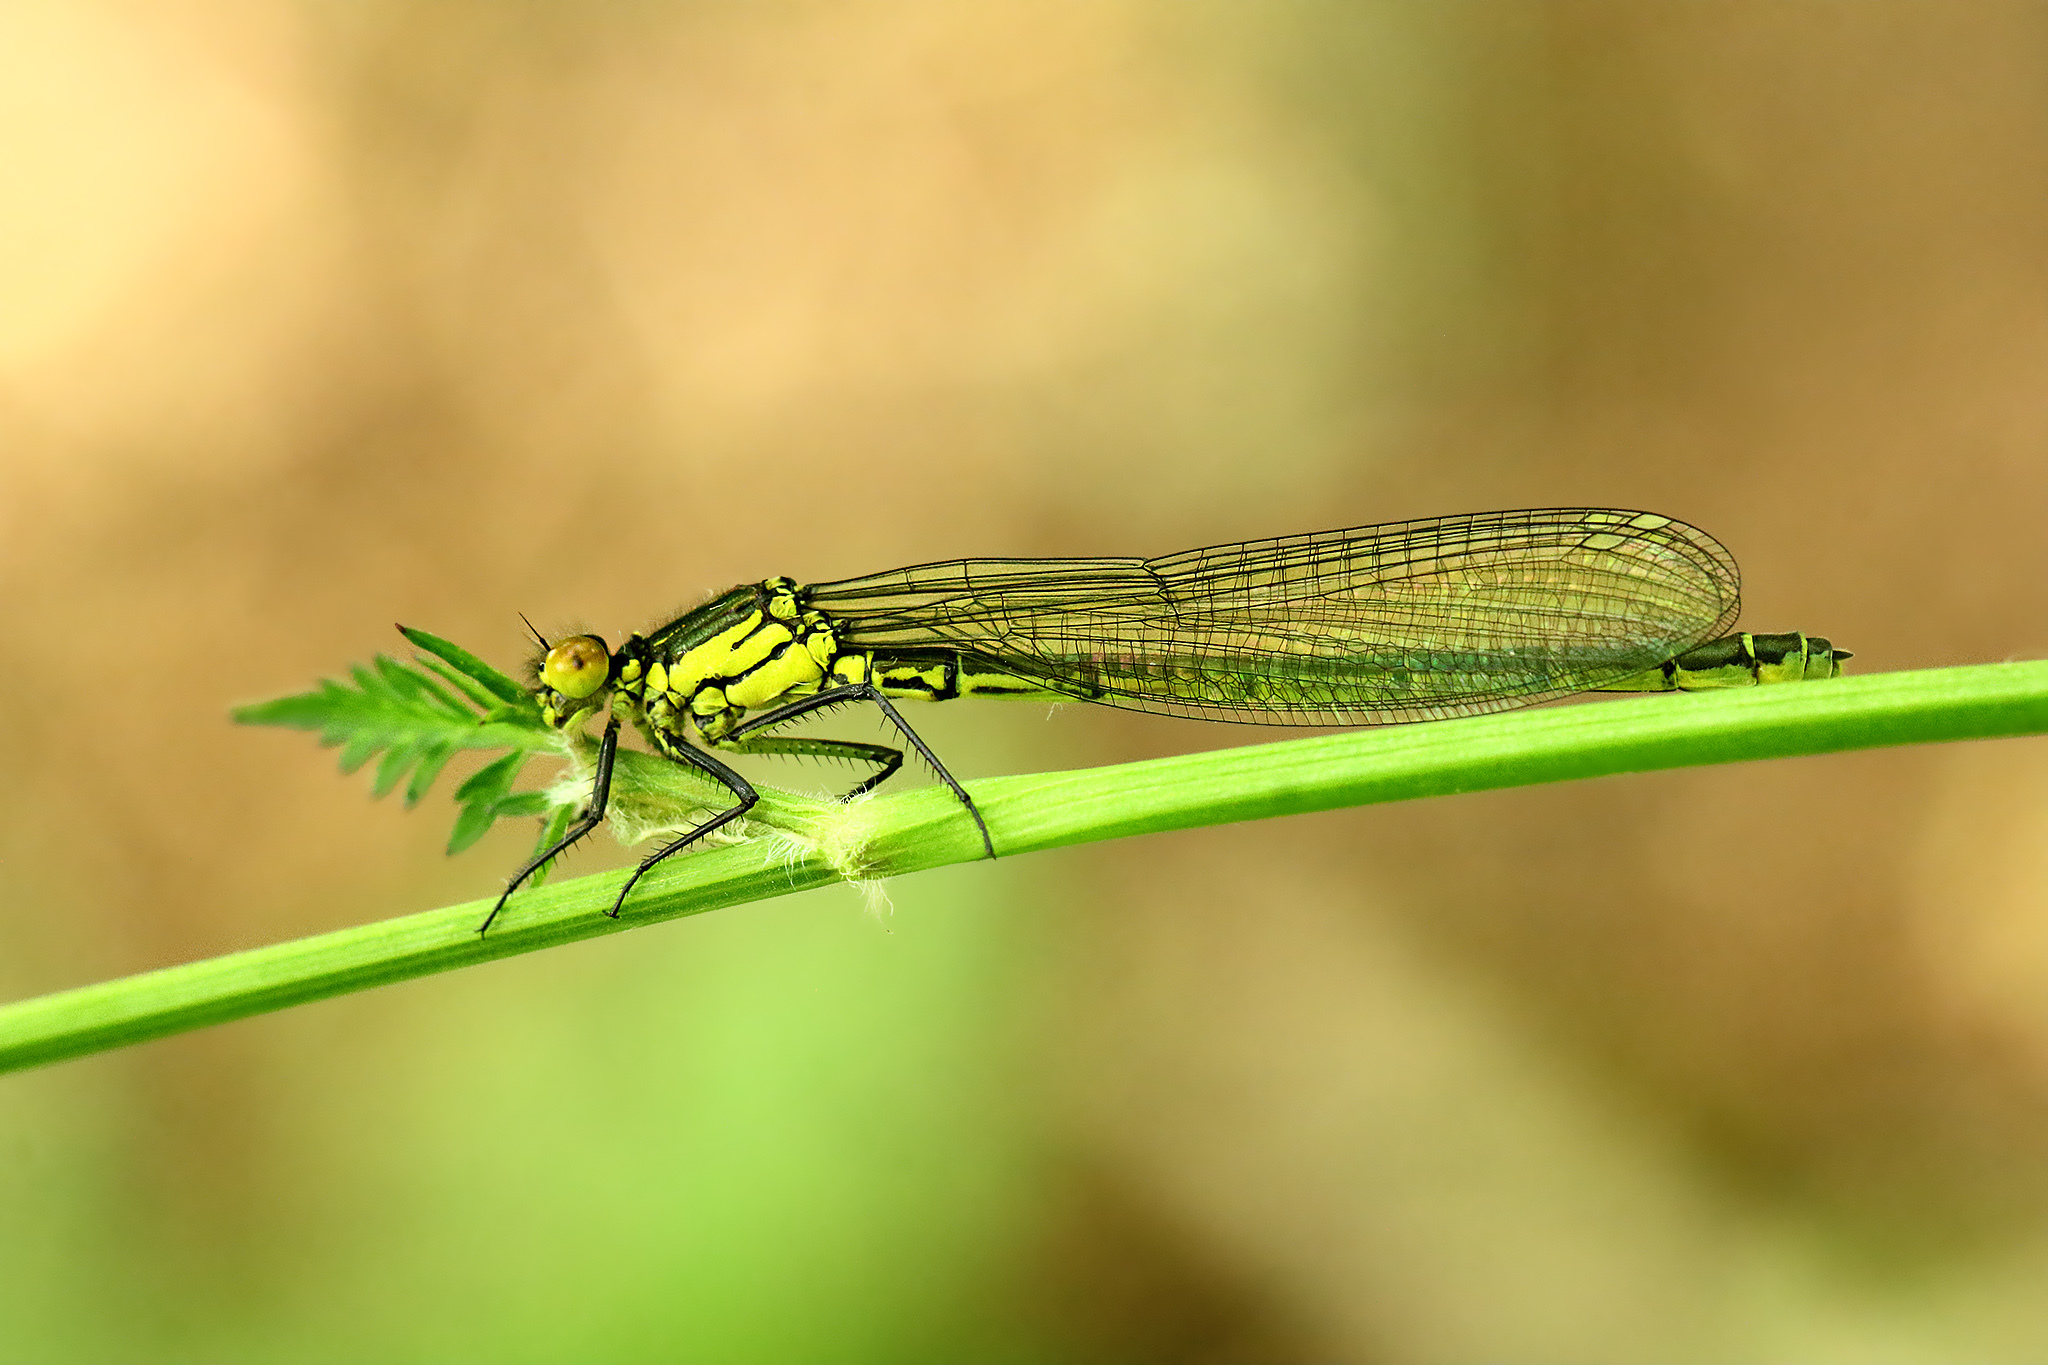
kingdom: Animalia
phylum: Arthropoda
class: Insecta
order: Odonata
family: Coenagrionidae
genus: Erythromma
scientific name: Erythromma najas
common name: Red-eyed damselfly
